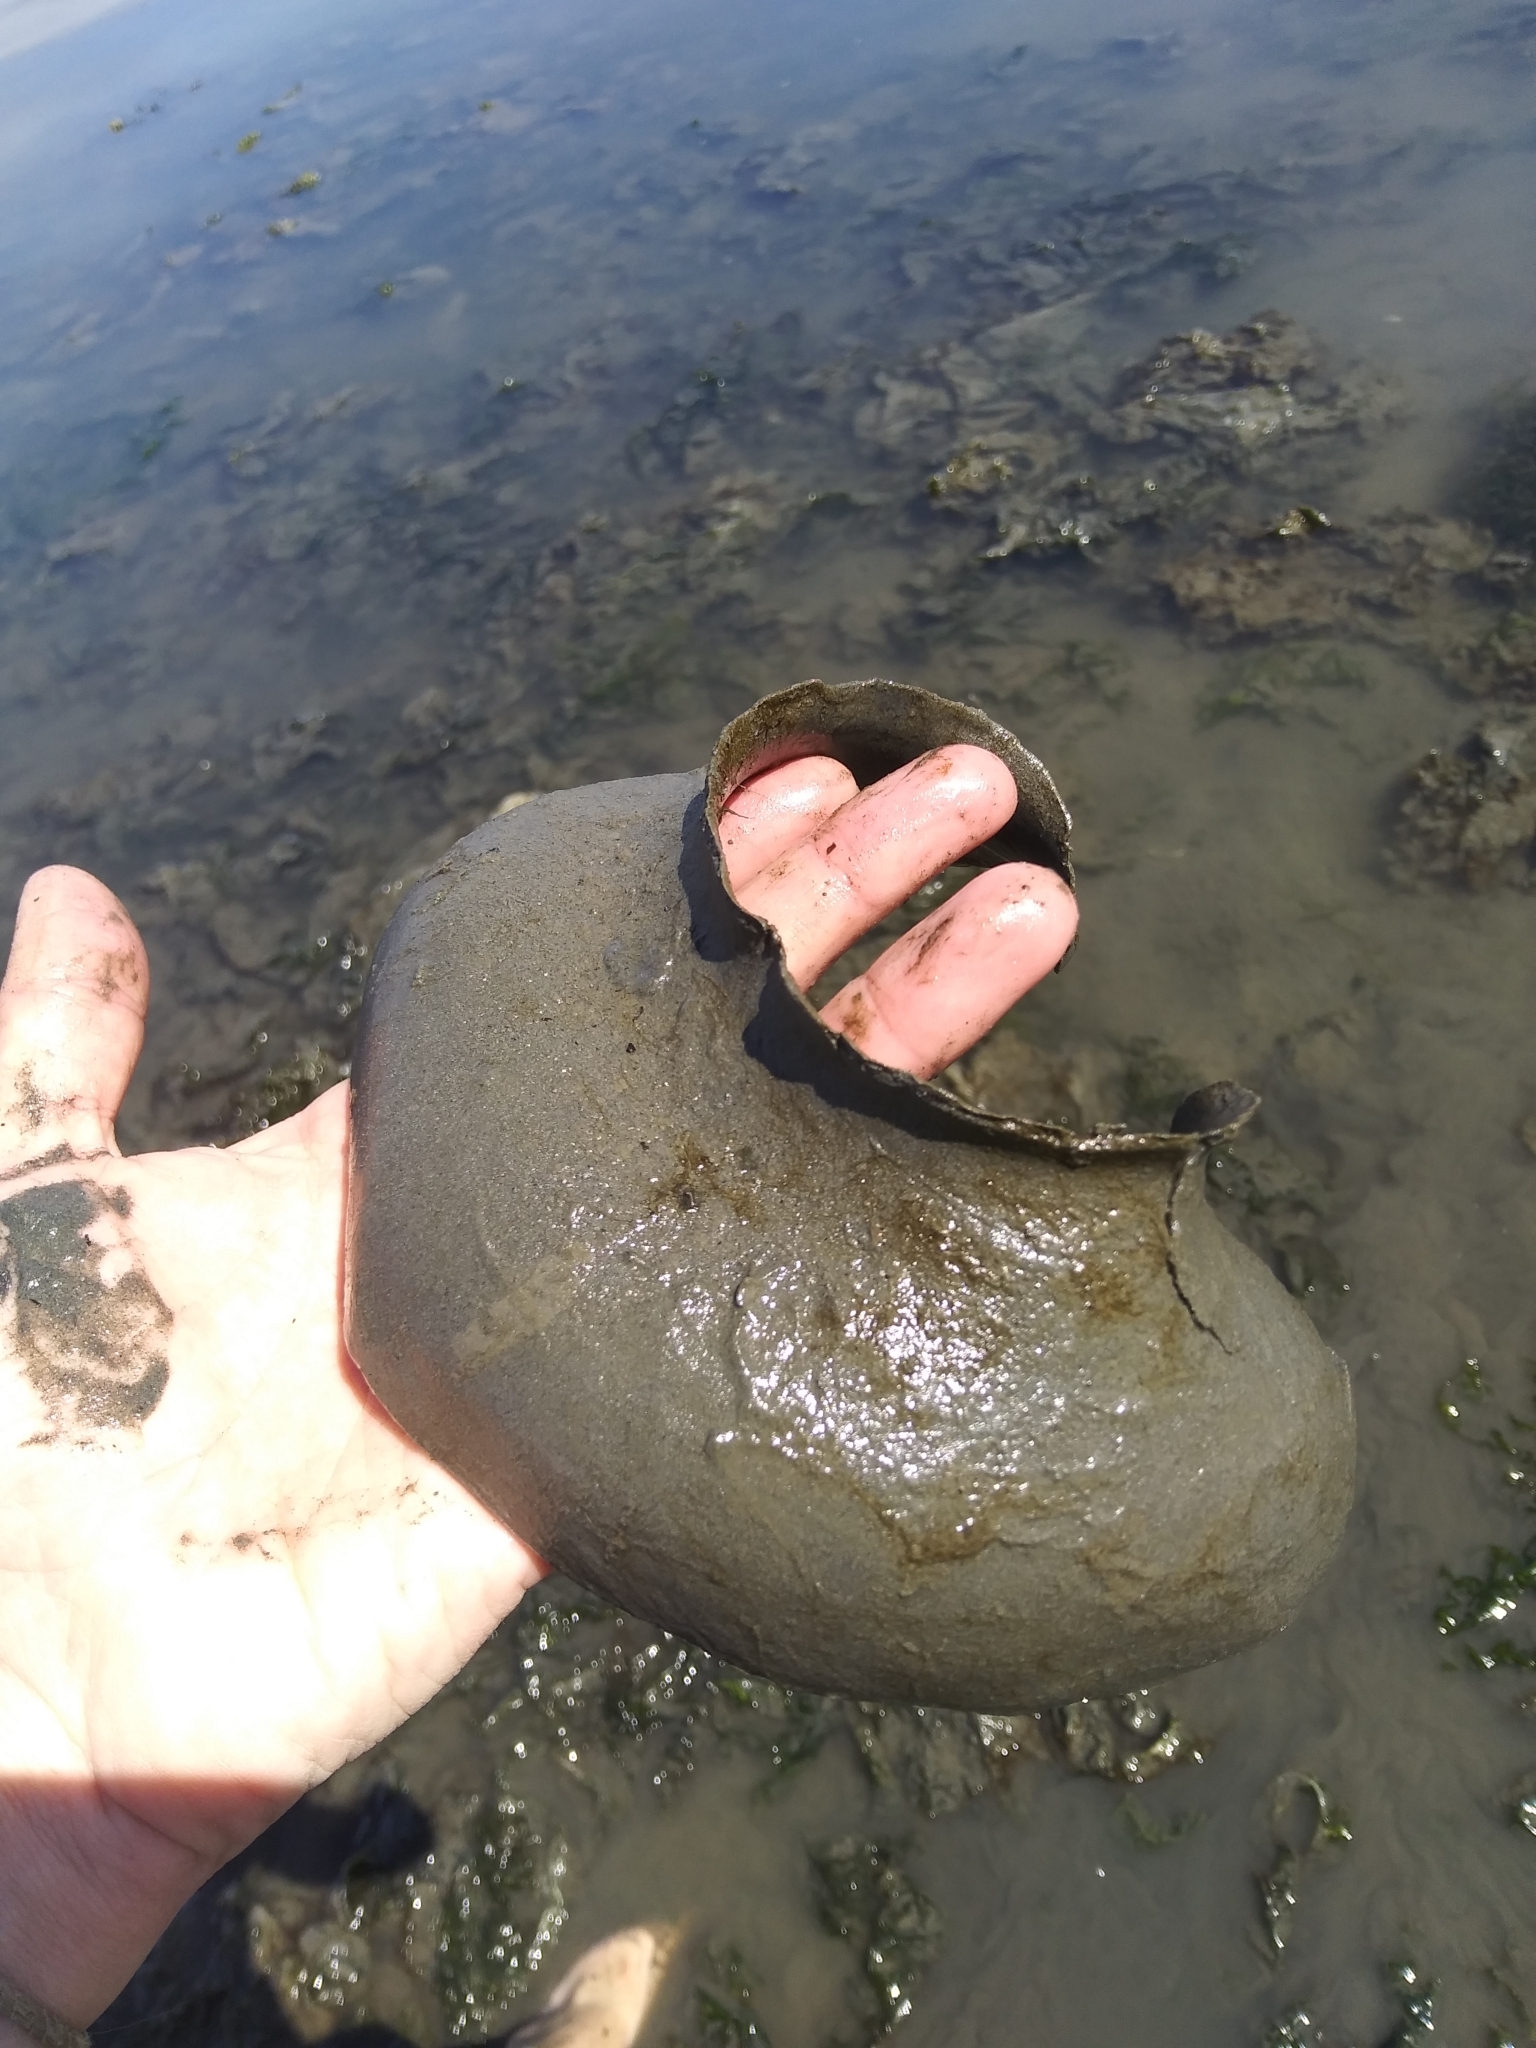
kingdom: Animalia
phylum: Mollusca
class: Gastropoda
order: Littorinimorpha
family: Naticidae
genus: Neverita
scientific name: Neverita lewisii
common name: Lewis' moonsnail
